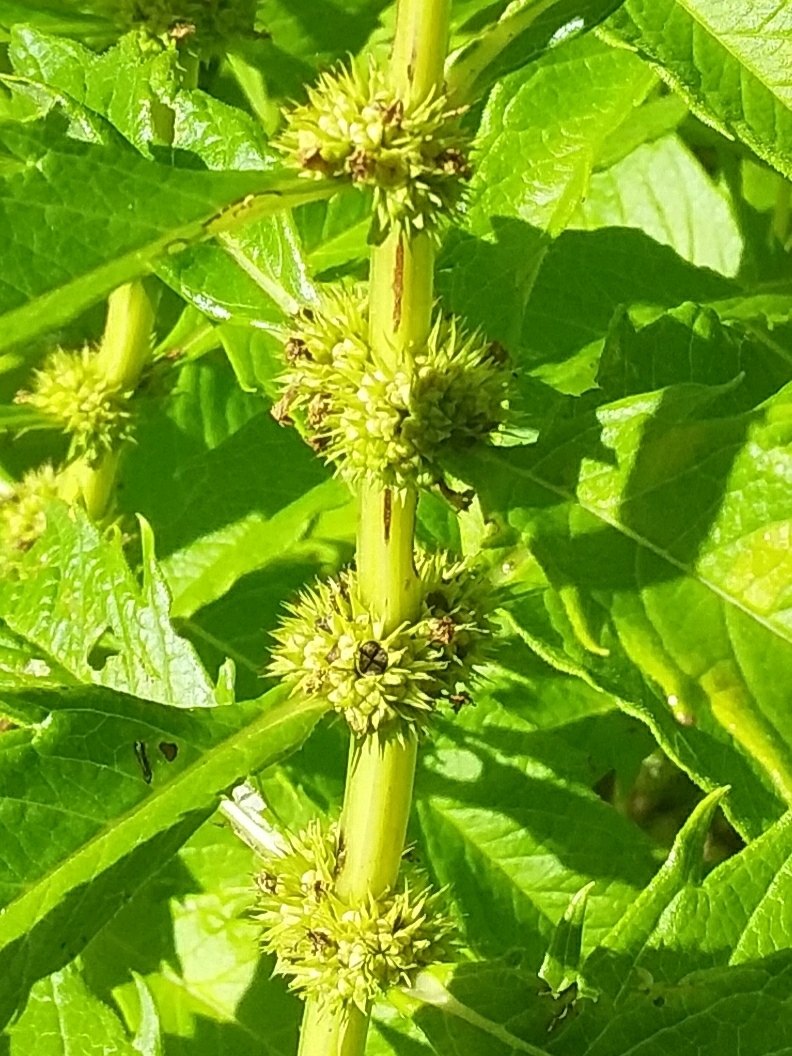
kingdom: Plantae
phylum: Tracheophyta
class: Magnoliopsida
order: Lamiales
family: Lamiaceae
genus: Lycopus
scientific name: Lycopus australis
